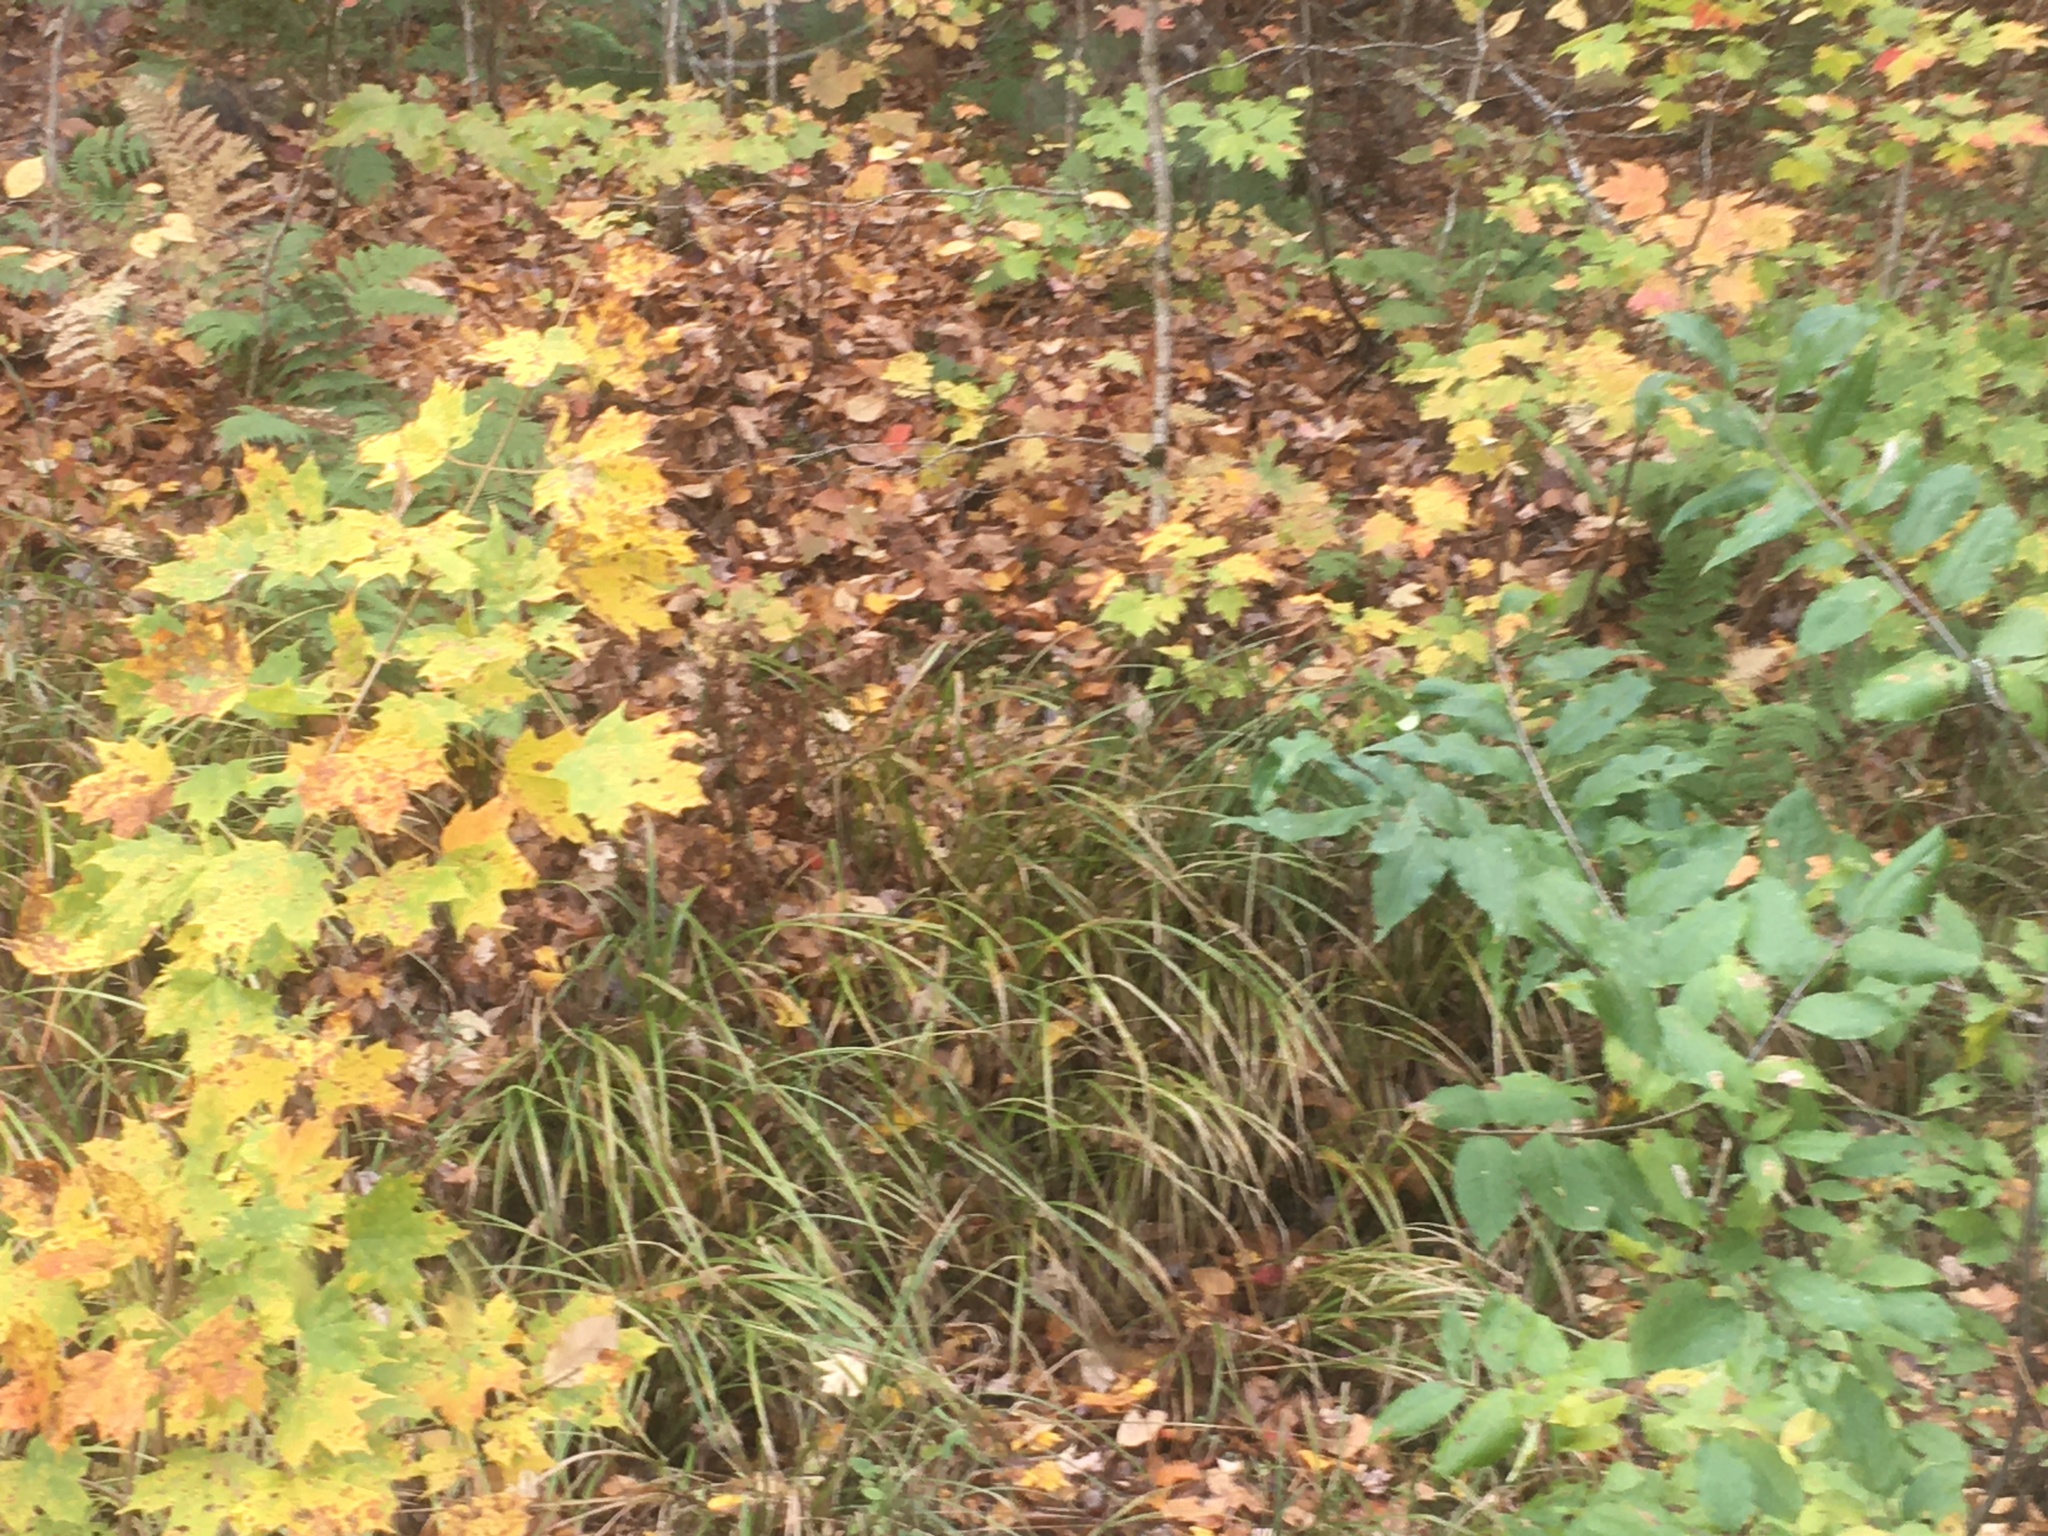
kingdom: Plantae
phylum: Tracheophyta
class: Liliopsida
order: Poales
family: Cyperaceae
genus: Carex
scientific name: Carex scabrata
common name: Eastern rough sedge
